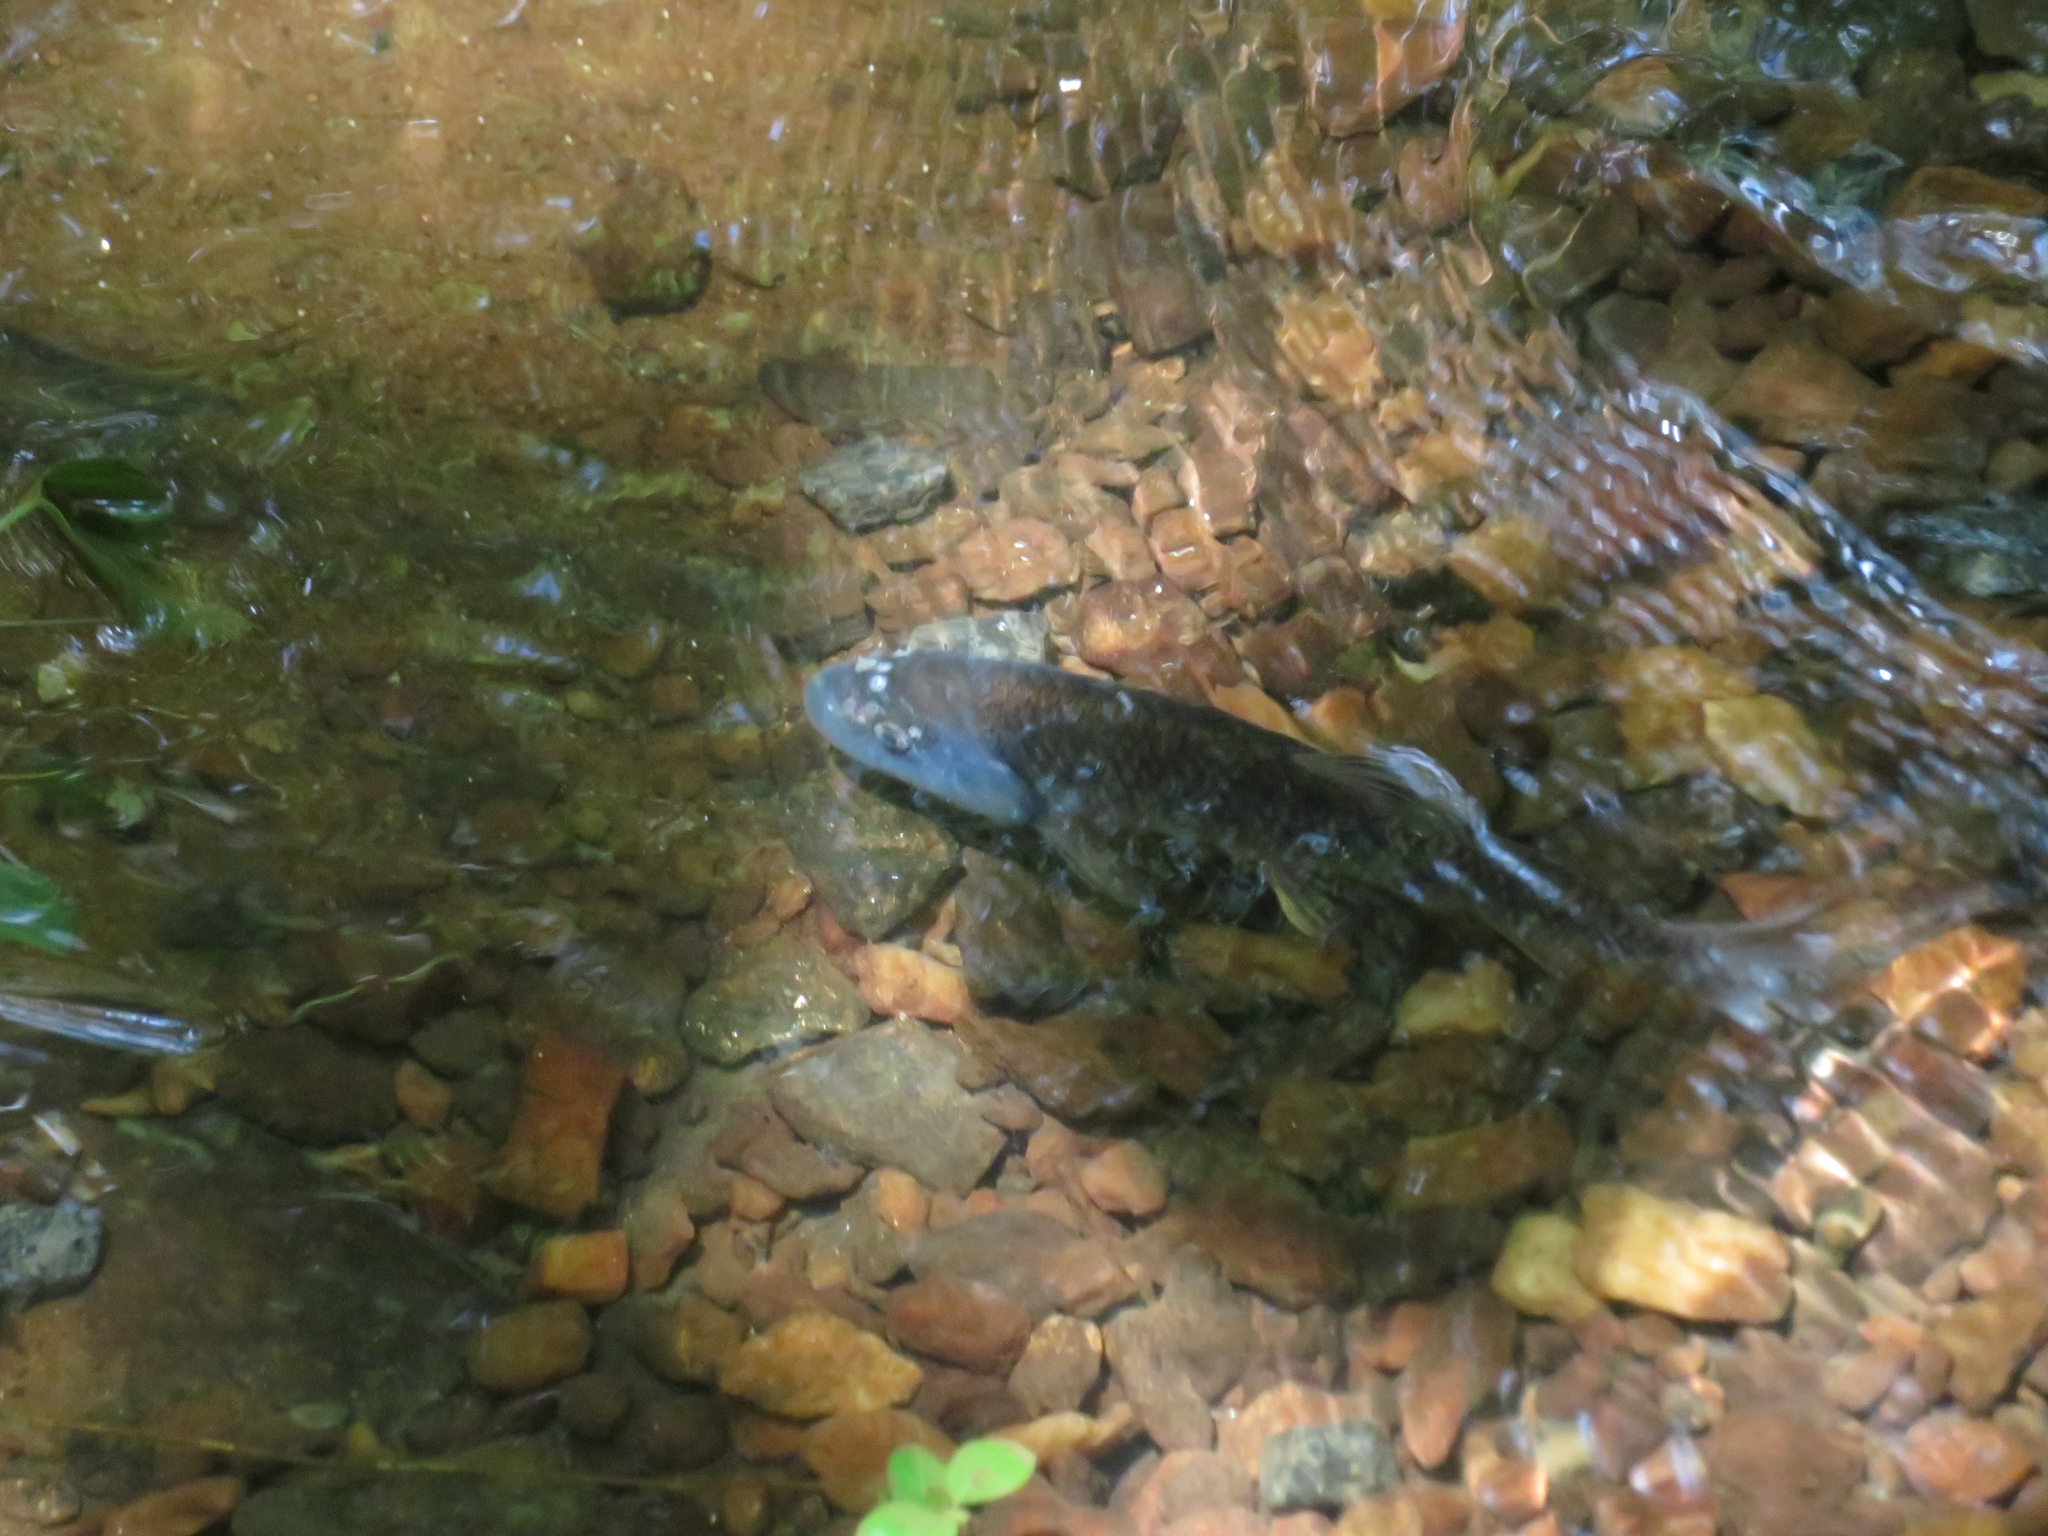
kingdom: Animalia
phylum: Chordata
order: Cypriniformes
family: Cyprinidae
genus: Nocomis
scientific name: Nocomis leptocephalus
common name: Bluehead chub
